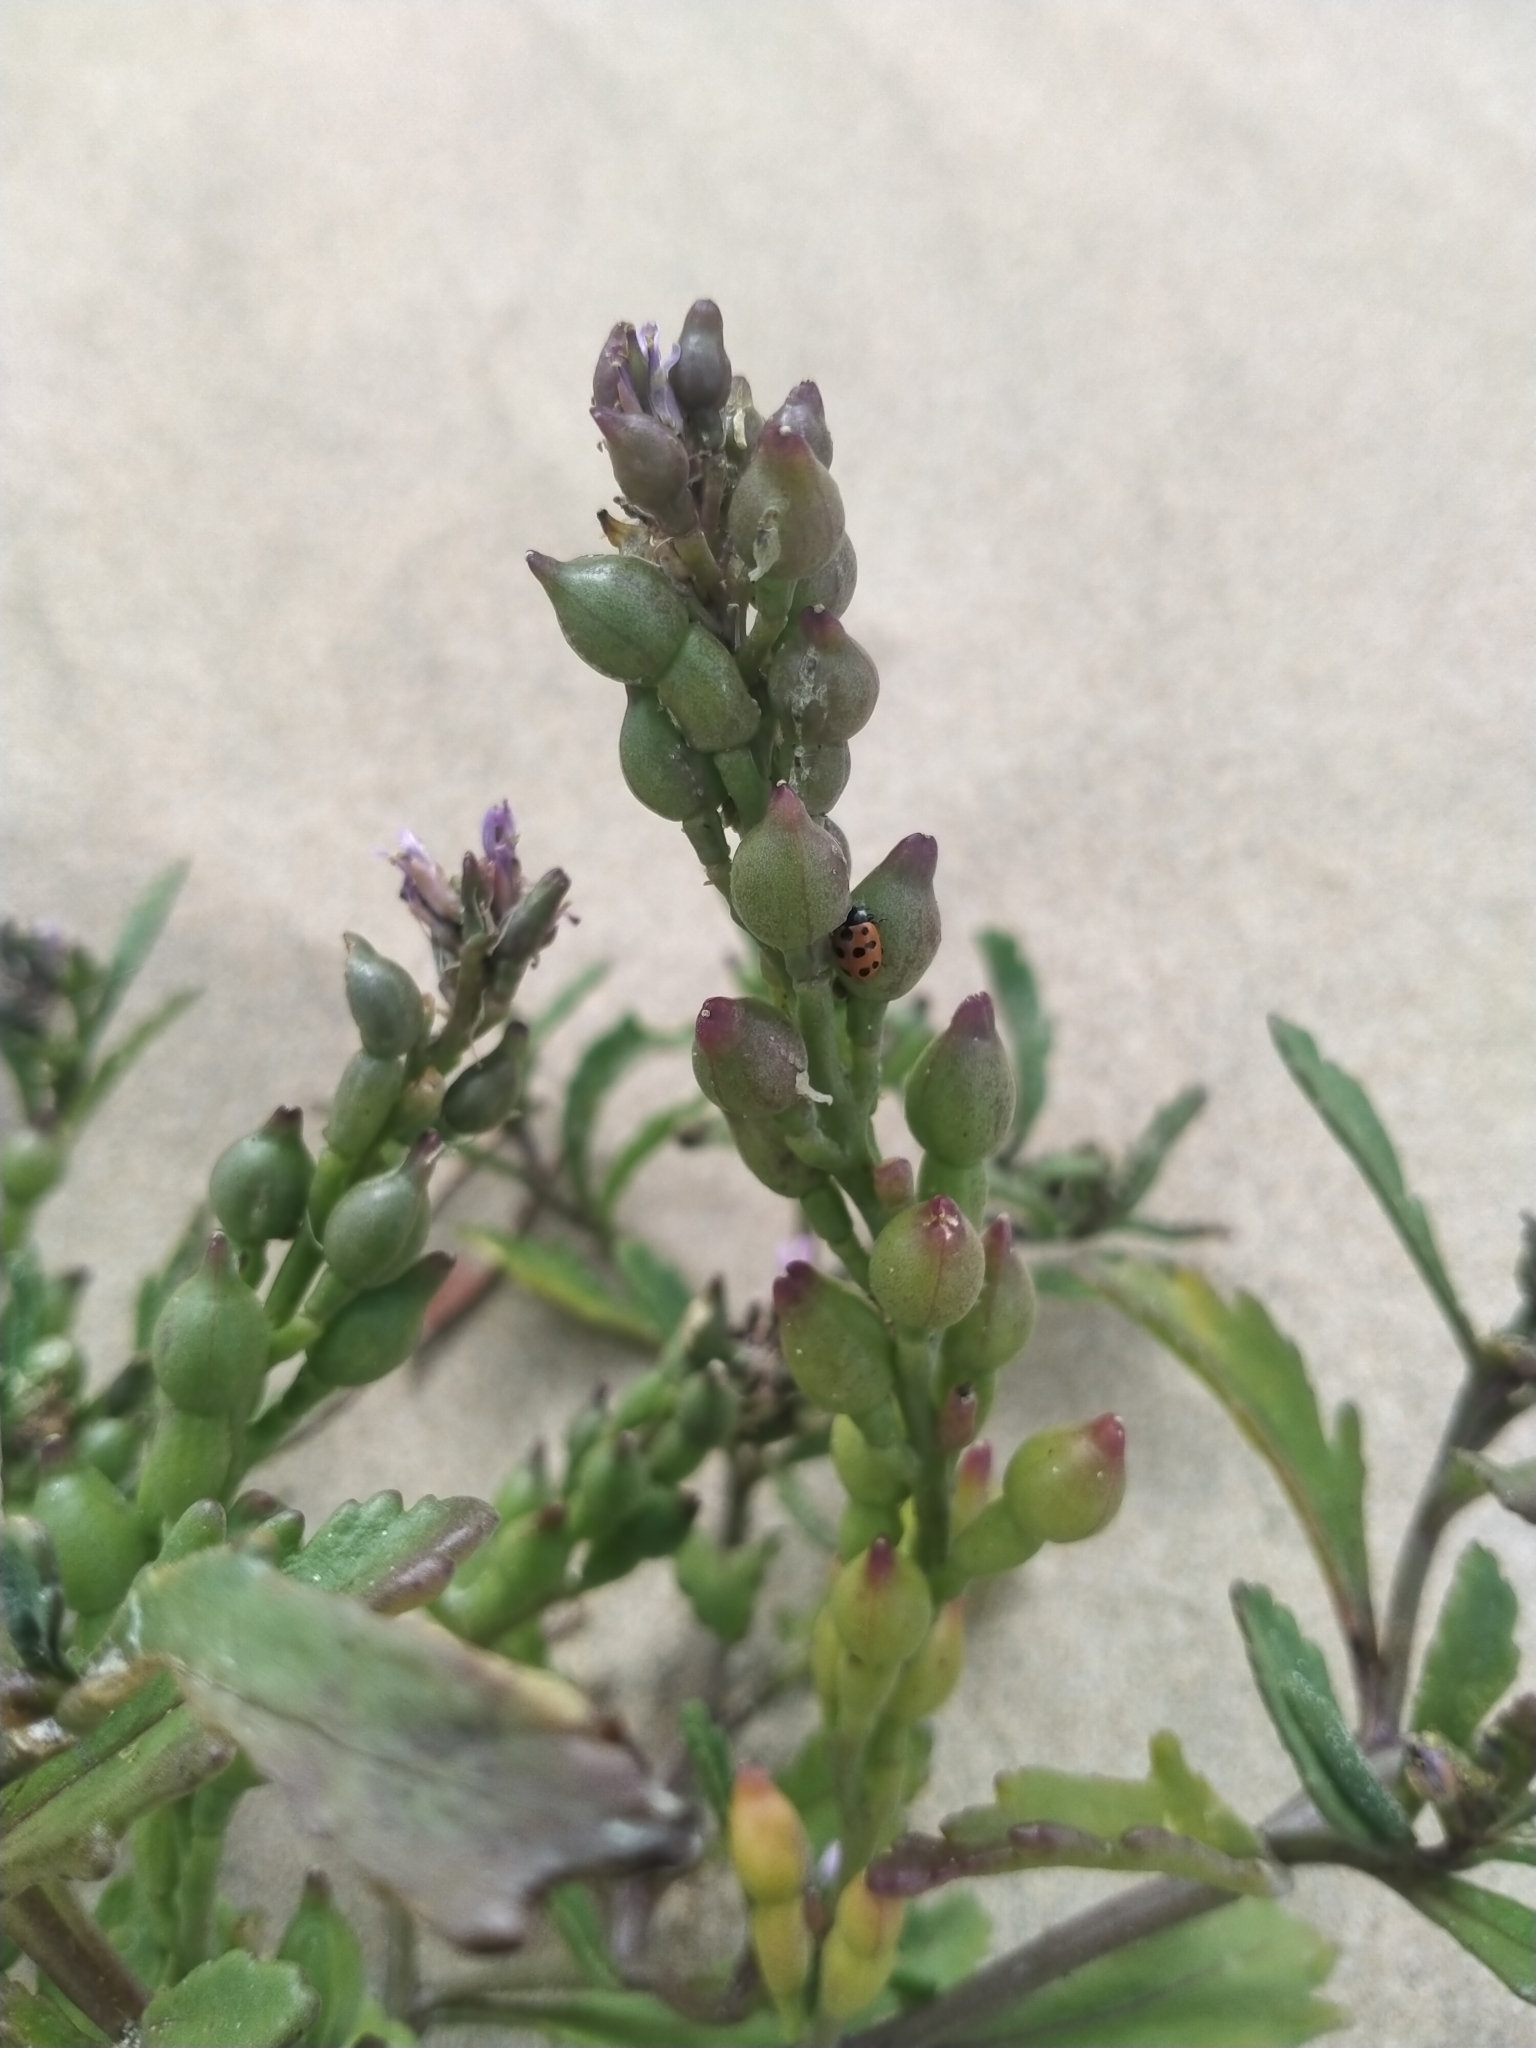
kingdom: Plantae
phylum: Tracheophyta
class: Magnoliopsida
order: Brassicales
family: Brassicaceae
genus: Cakile
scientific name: Cakile edentula
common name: American sea rocket
